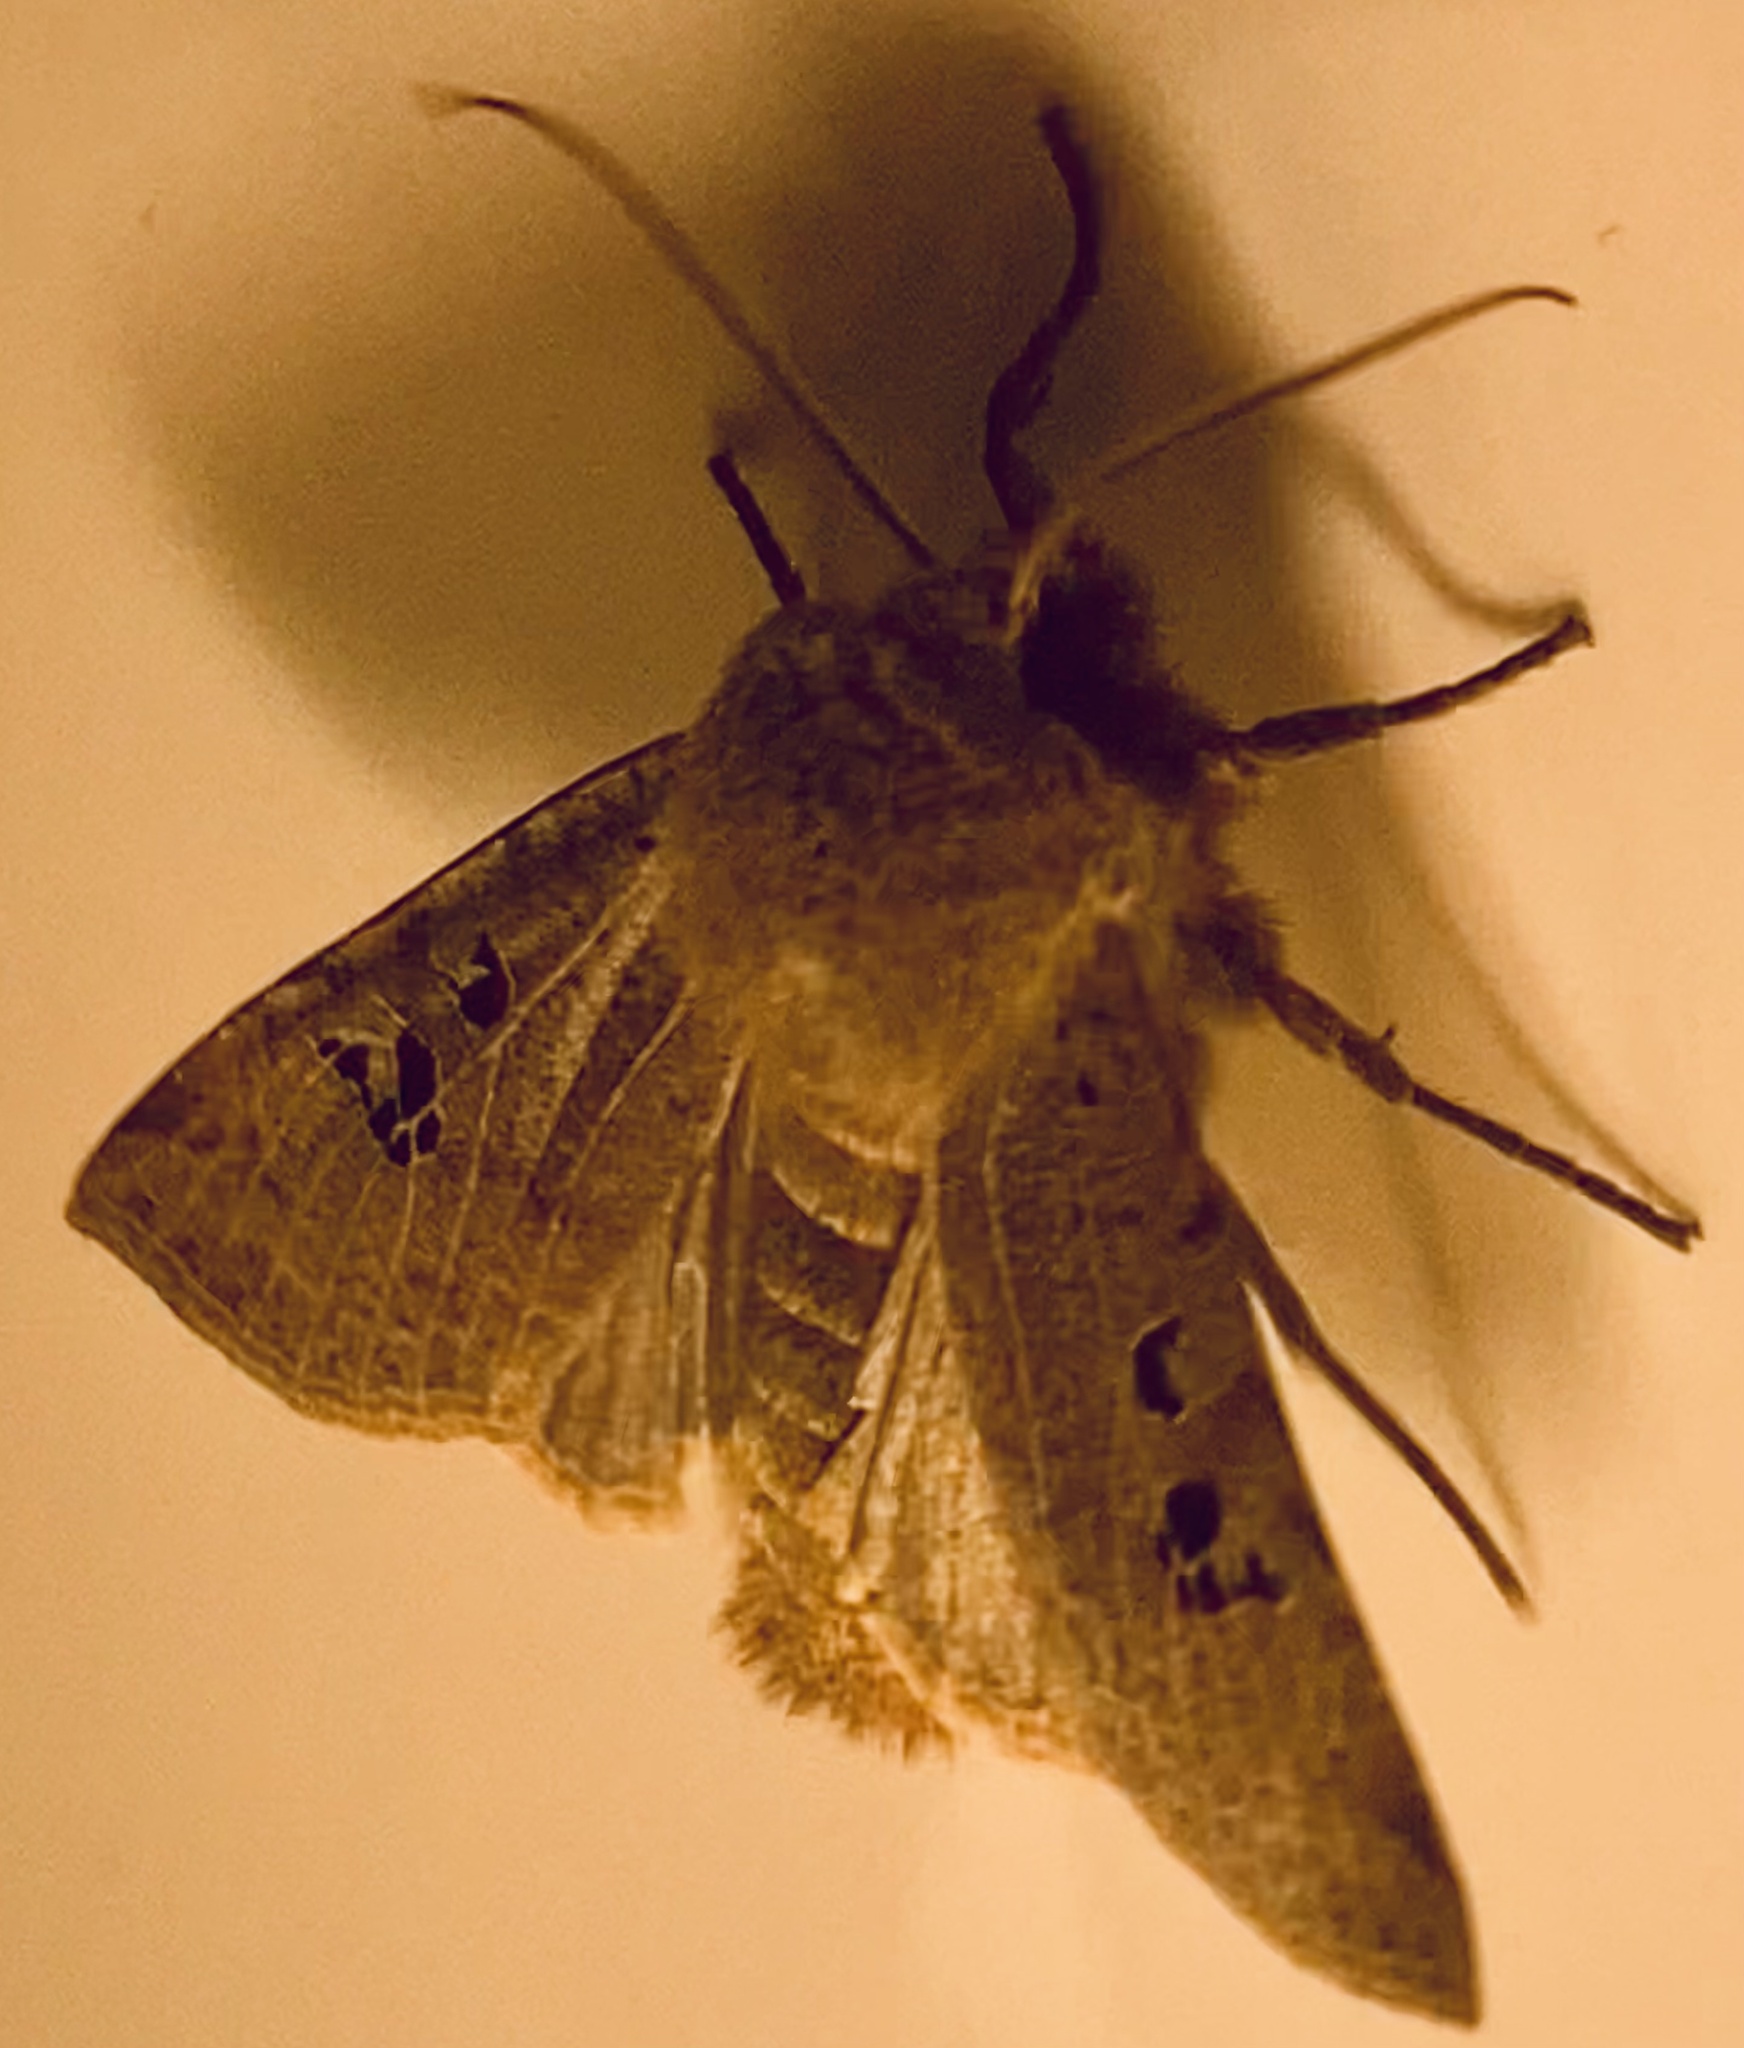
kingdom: Animalia
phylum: Arthropoda
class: Insecta
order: Lepidoptera
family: Noctuidae
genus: Conistra
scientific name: Conistra rubiginosa
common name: Black-spotted chestnut
